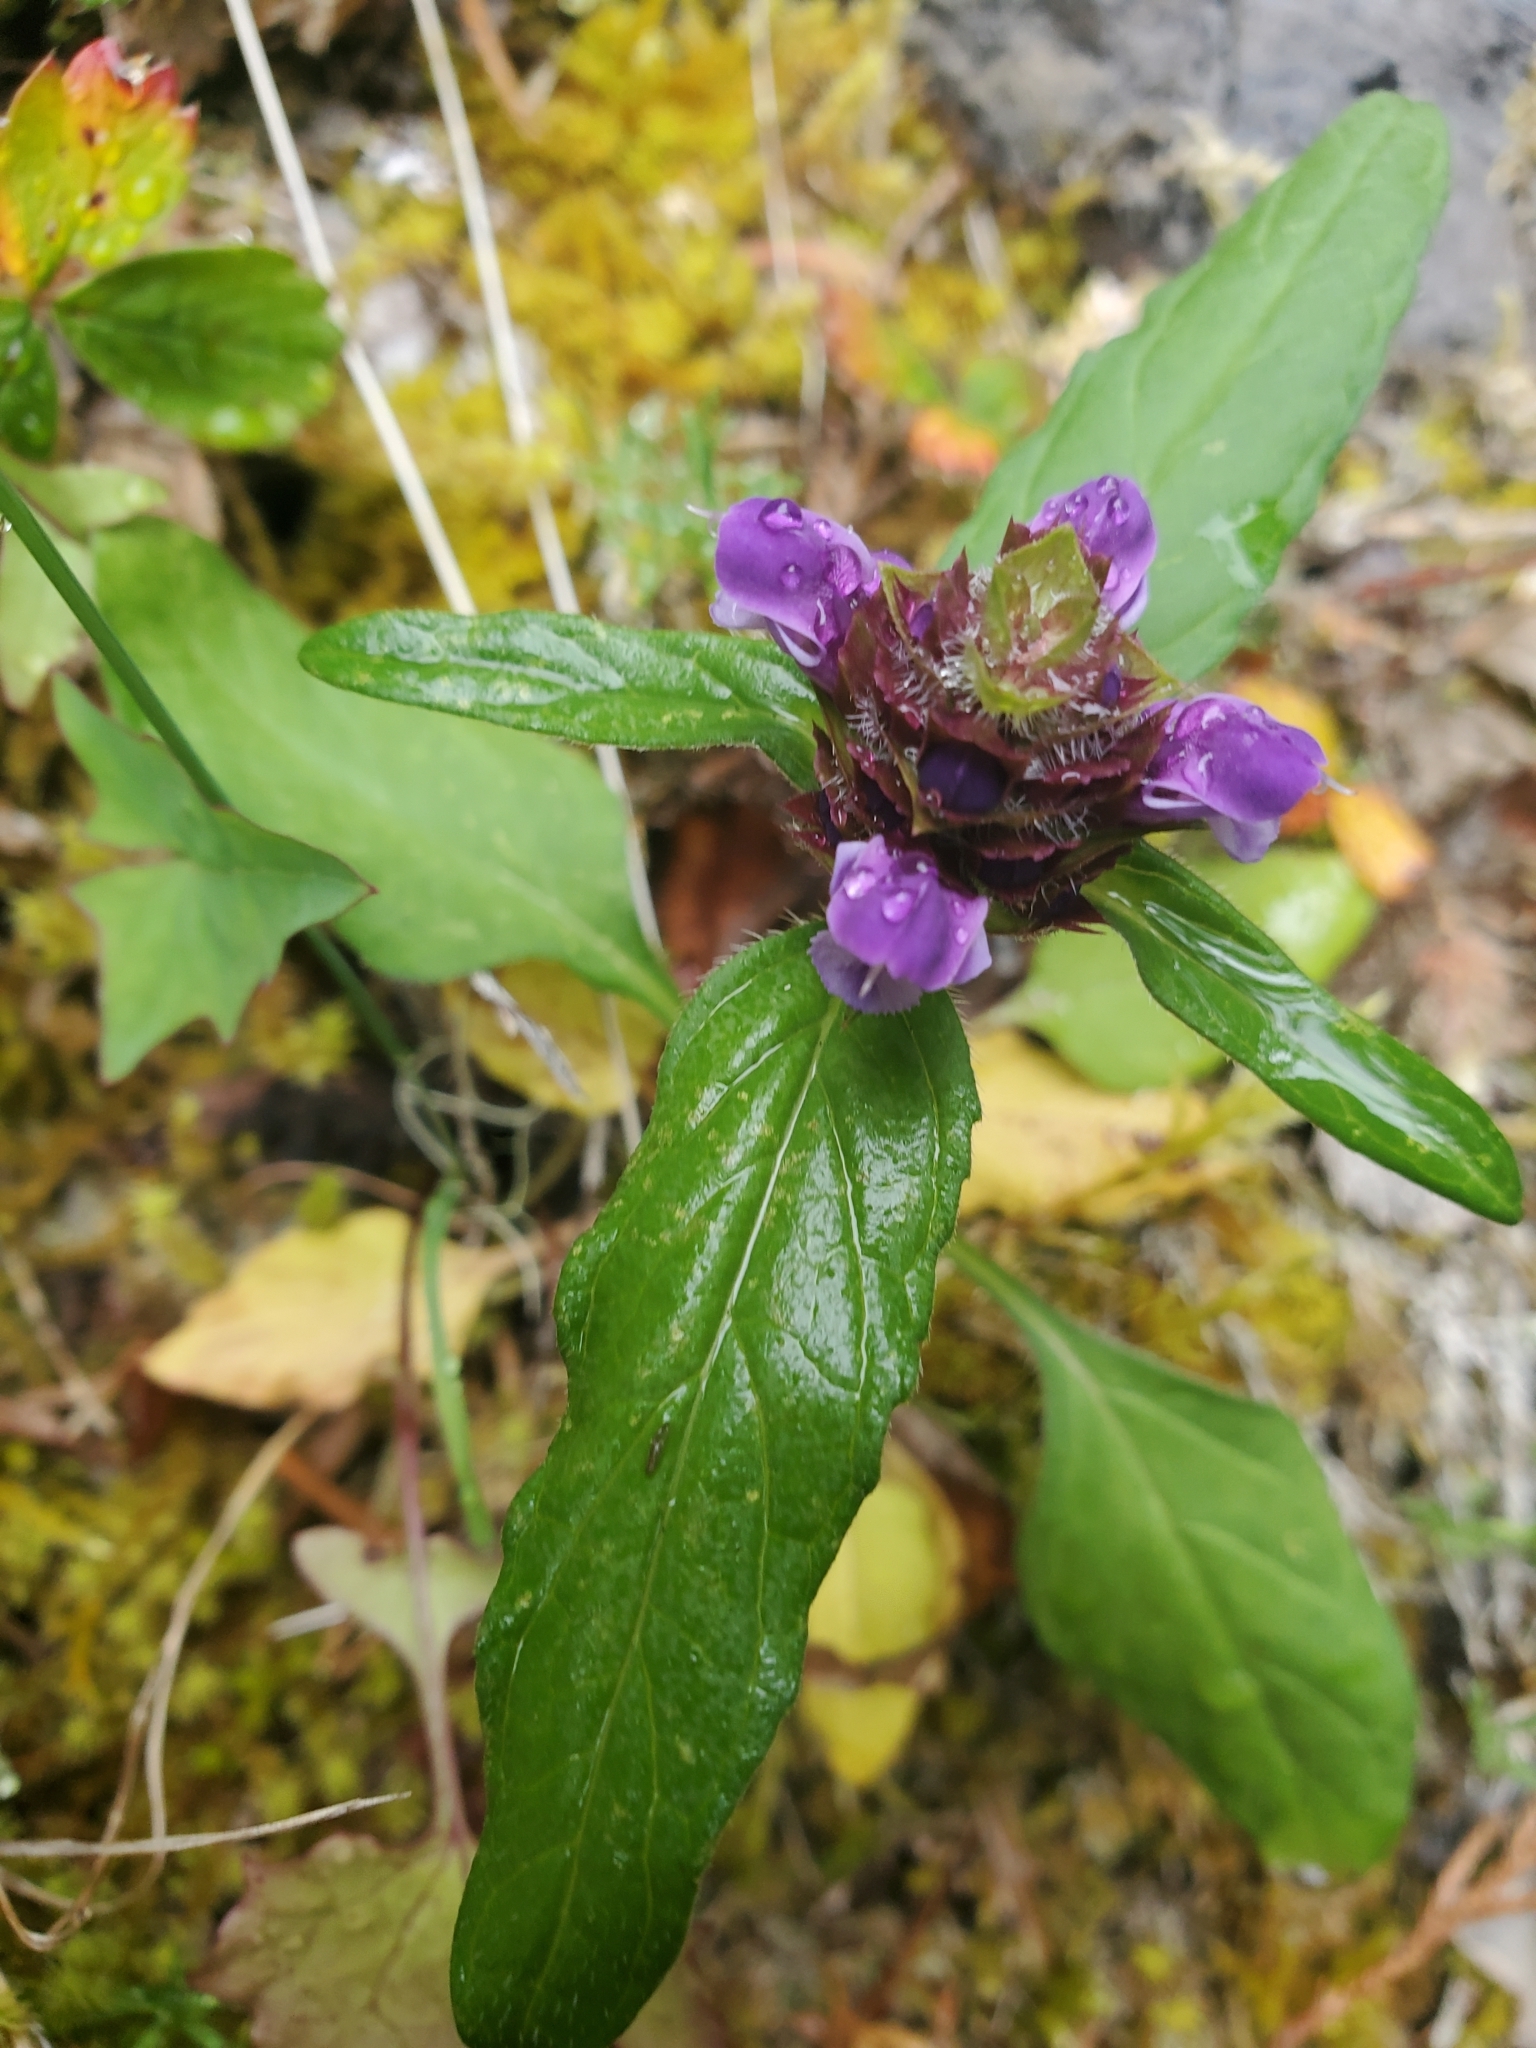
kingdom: Plantae
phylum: Tracheophyta
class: Magnoliopsida
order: Lamiales
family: Lamiaceae
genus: Prunella
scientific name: Prunella vulgaris
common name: Heal-all
